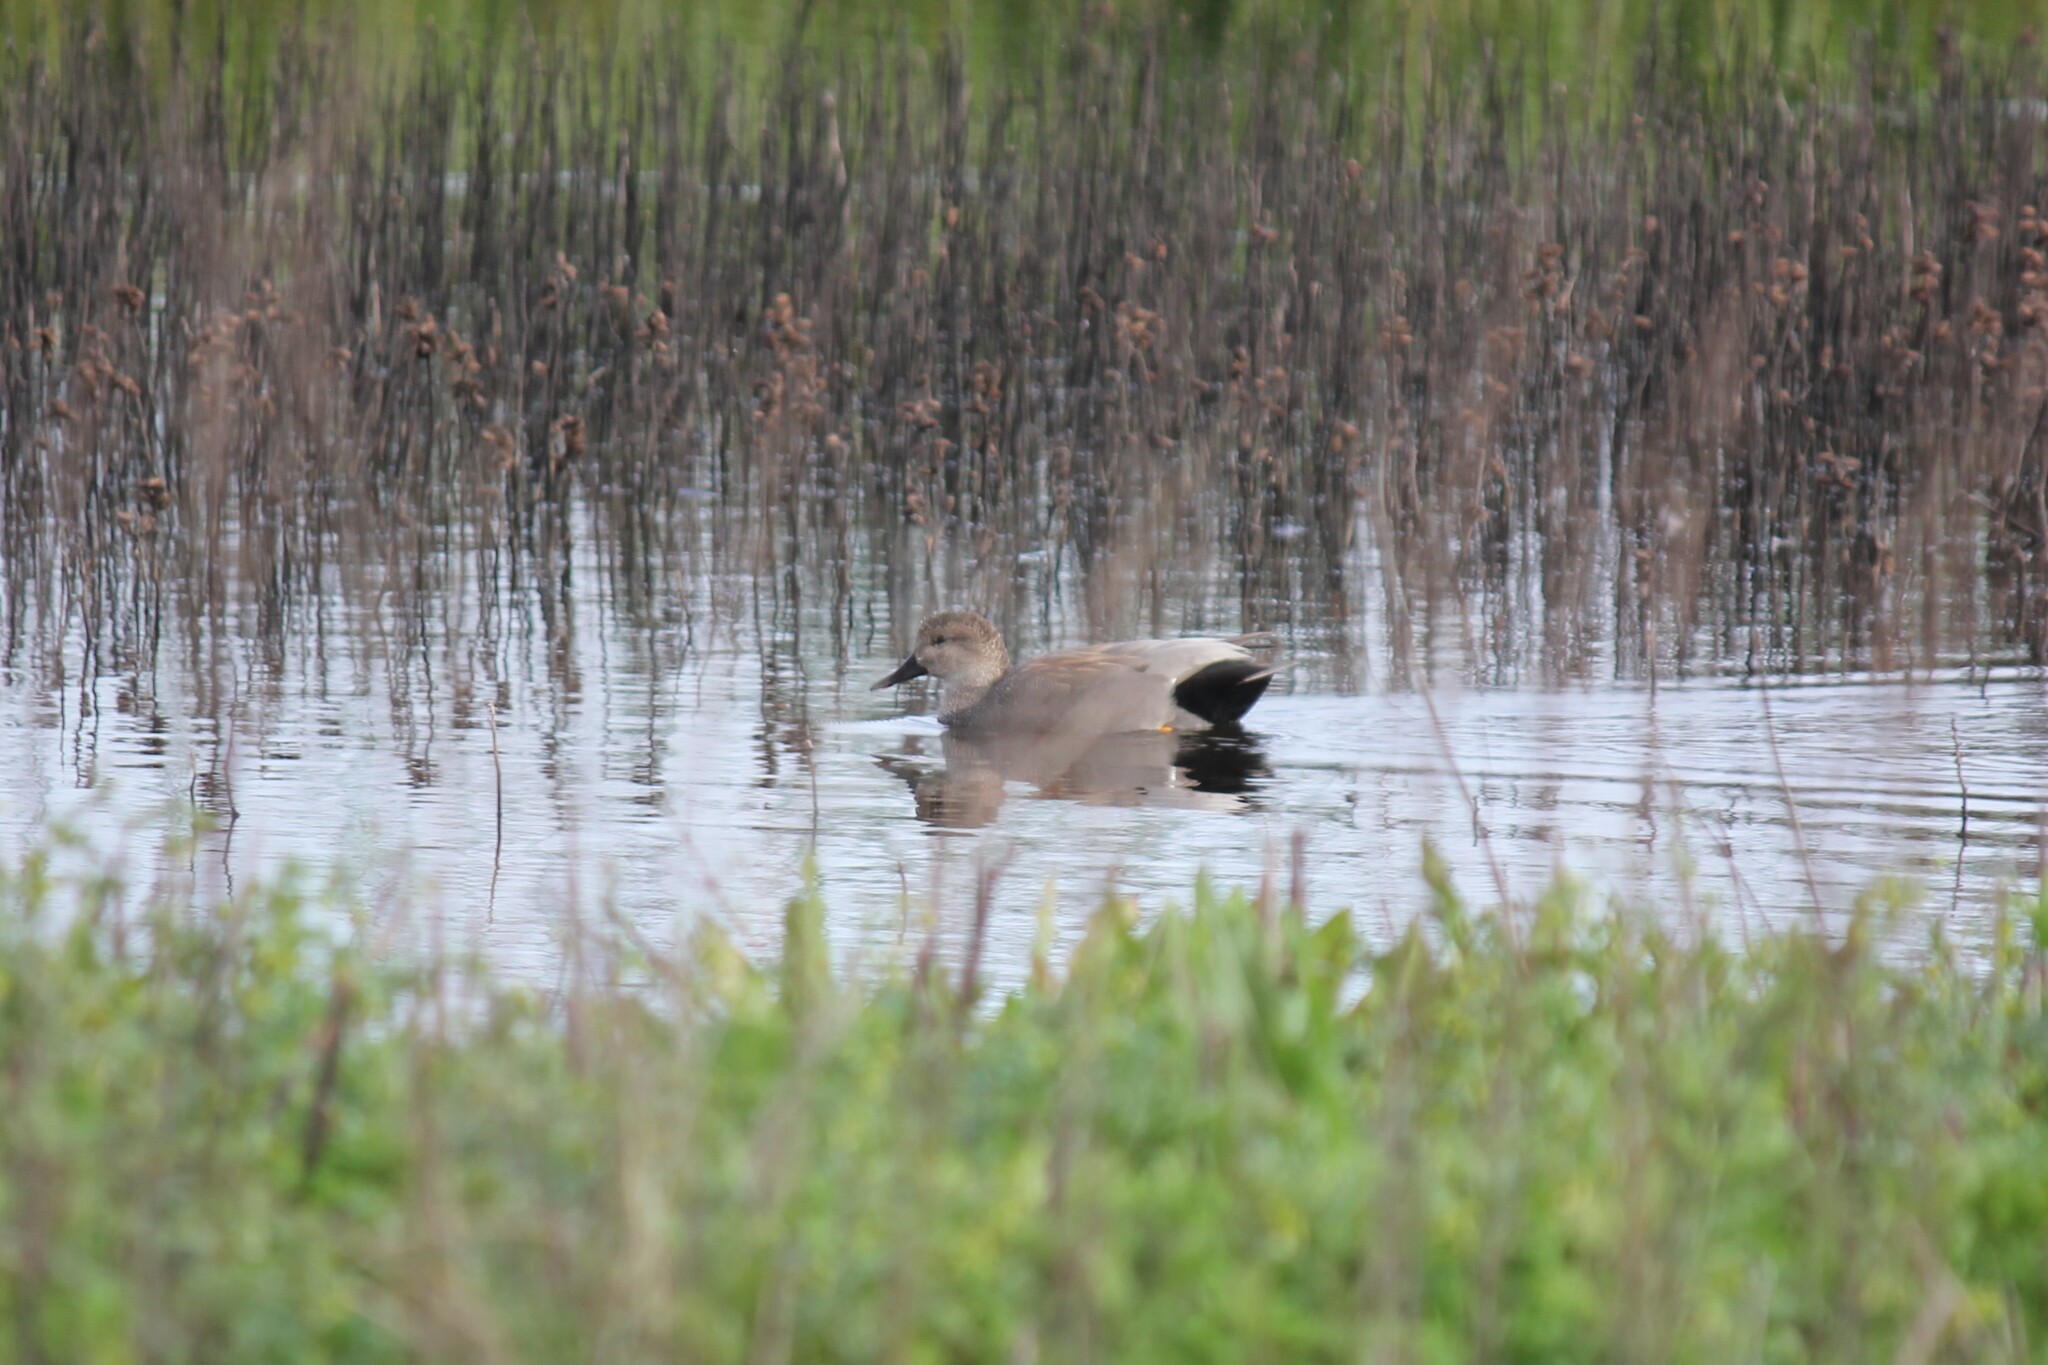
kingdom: Animalia
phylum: Chordata
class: Aves
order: Anseriformes
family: Anatidae
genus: Mareca
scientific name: Mareca strepera
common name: Gadwall
